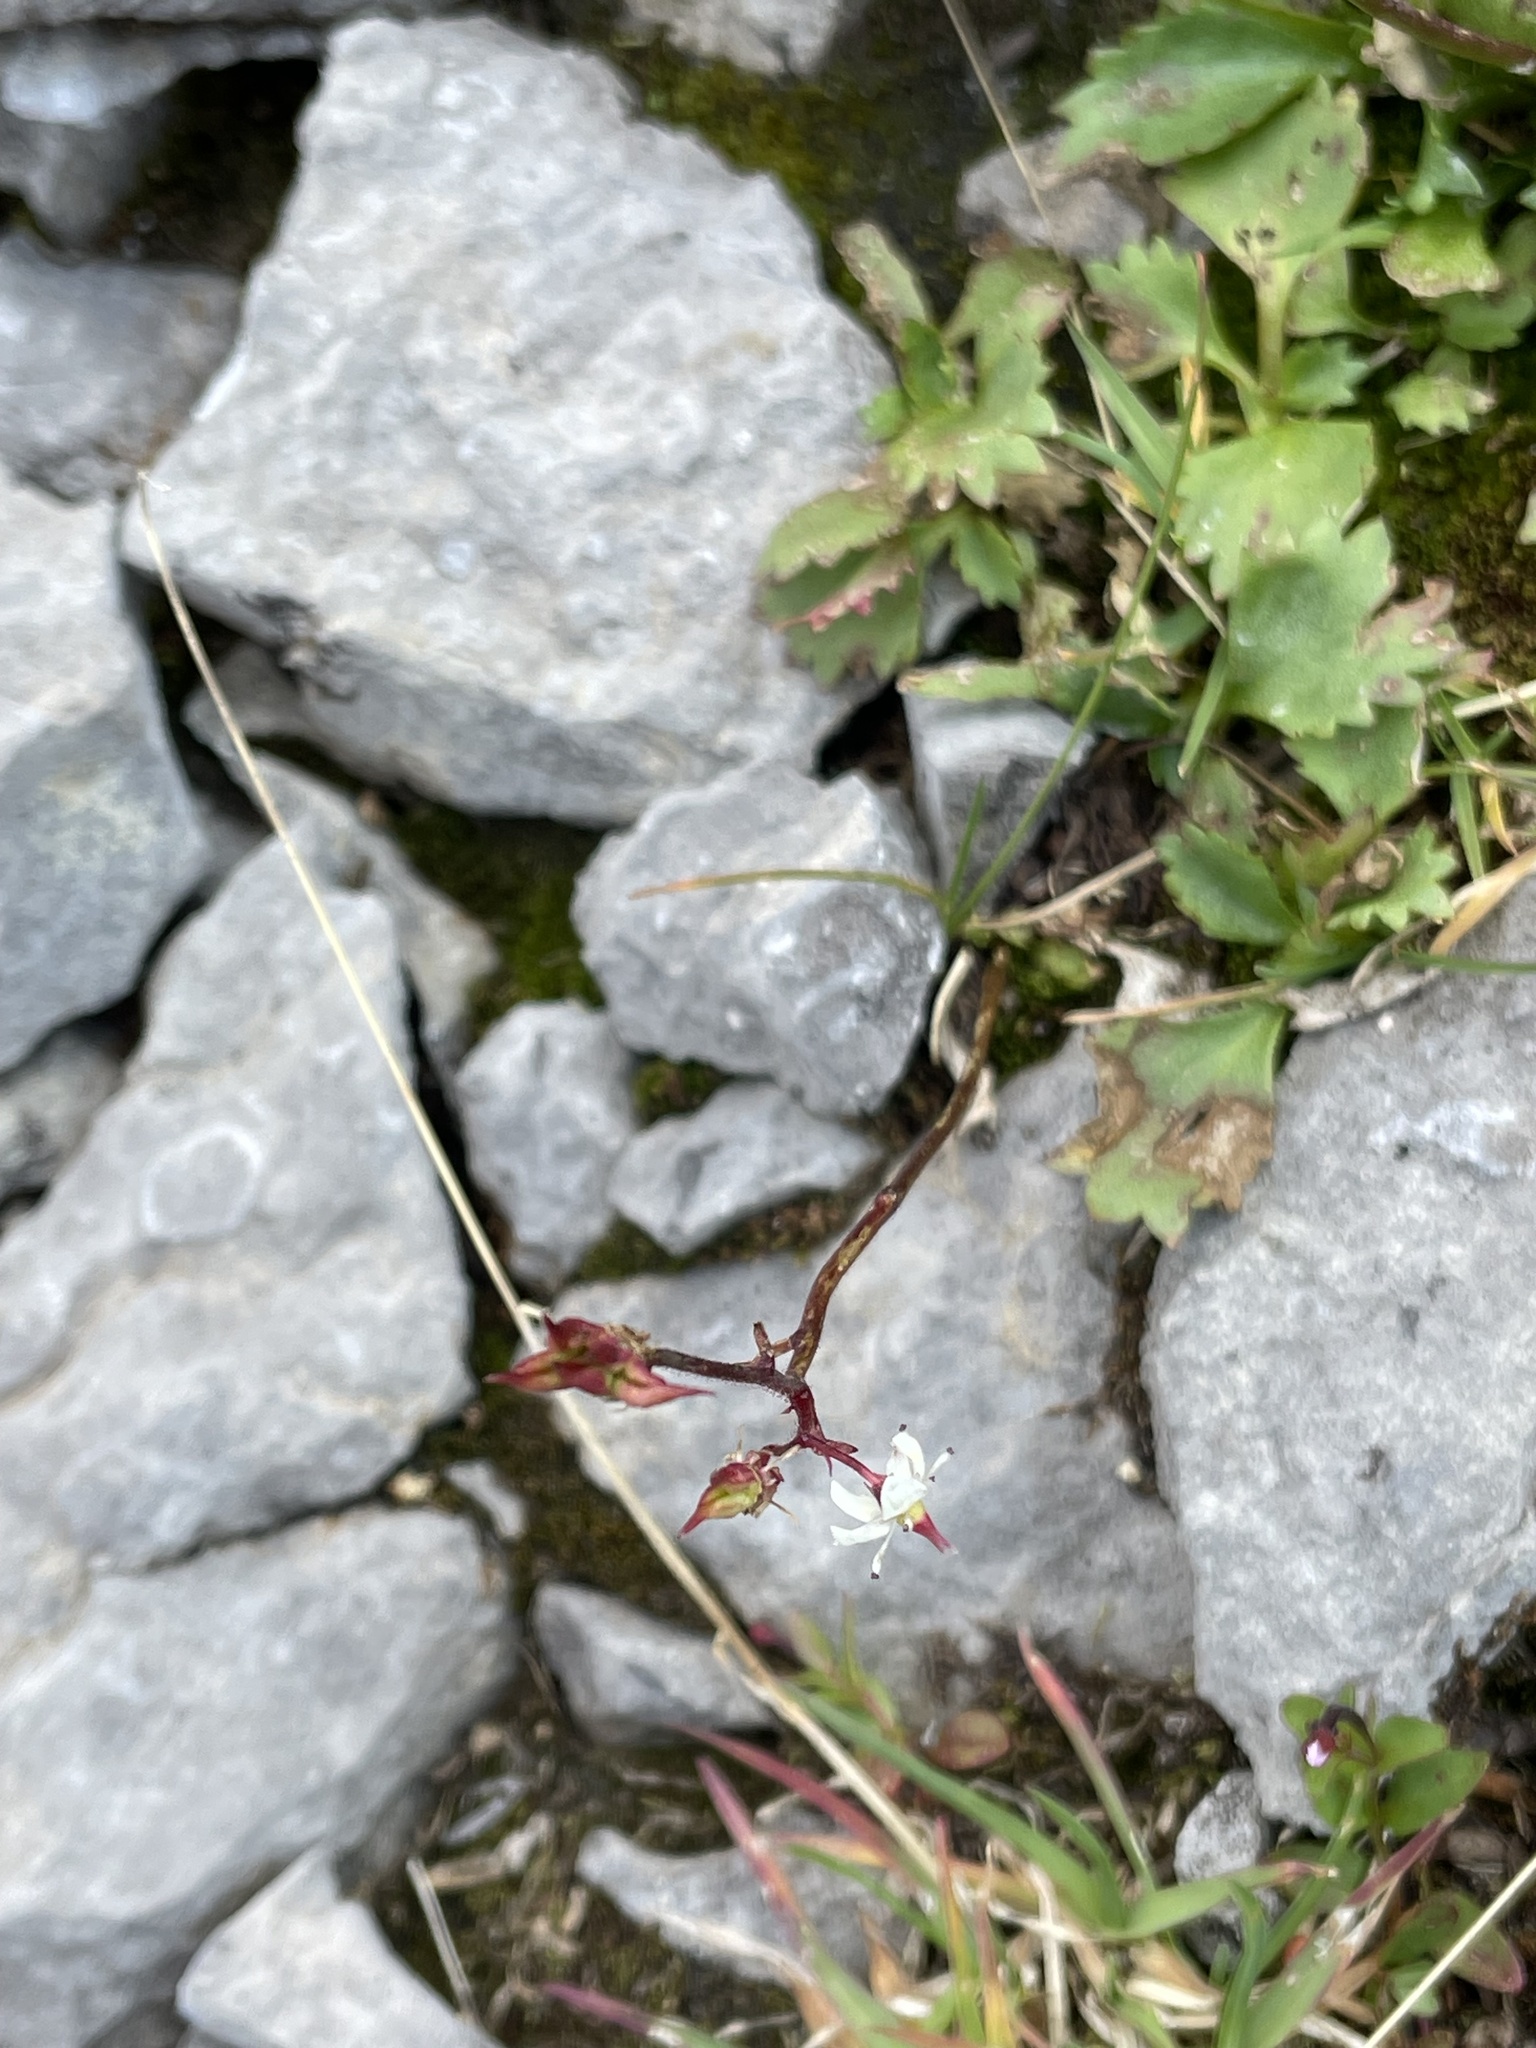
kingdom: Plantae
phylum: Tracheophyta
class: Magnoliopsida
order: Saxifragales
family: Saxifragaceae
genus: Micranthes
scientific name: Micranthes lyallii
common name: Lyall's saxifrage
